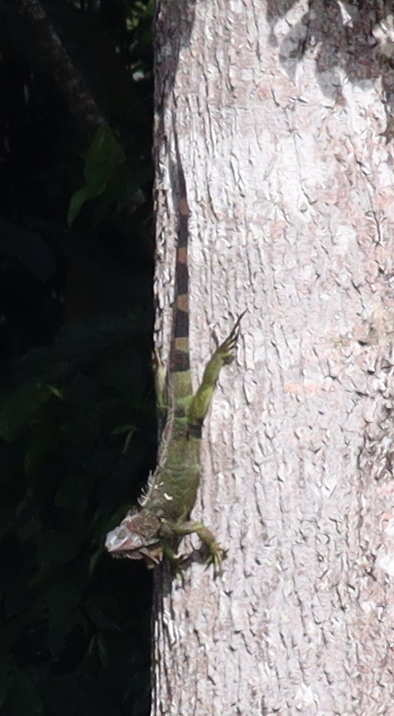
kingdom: Animalia
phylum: Chordata
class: Squamata
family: Iguanidae
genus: Iguana
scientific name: Iguana iguana
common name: Green iguana
